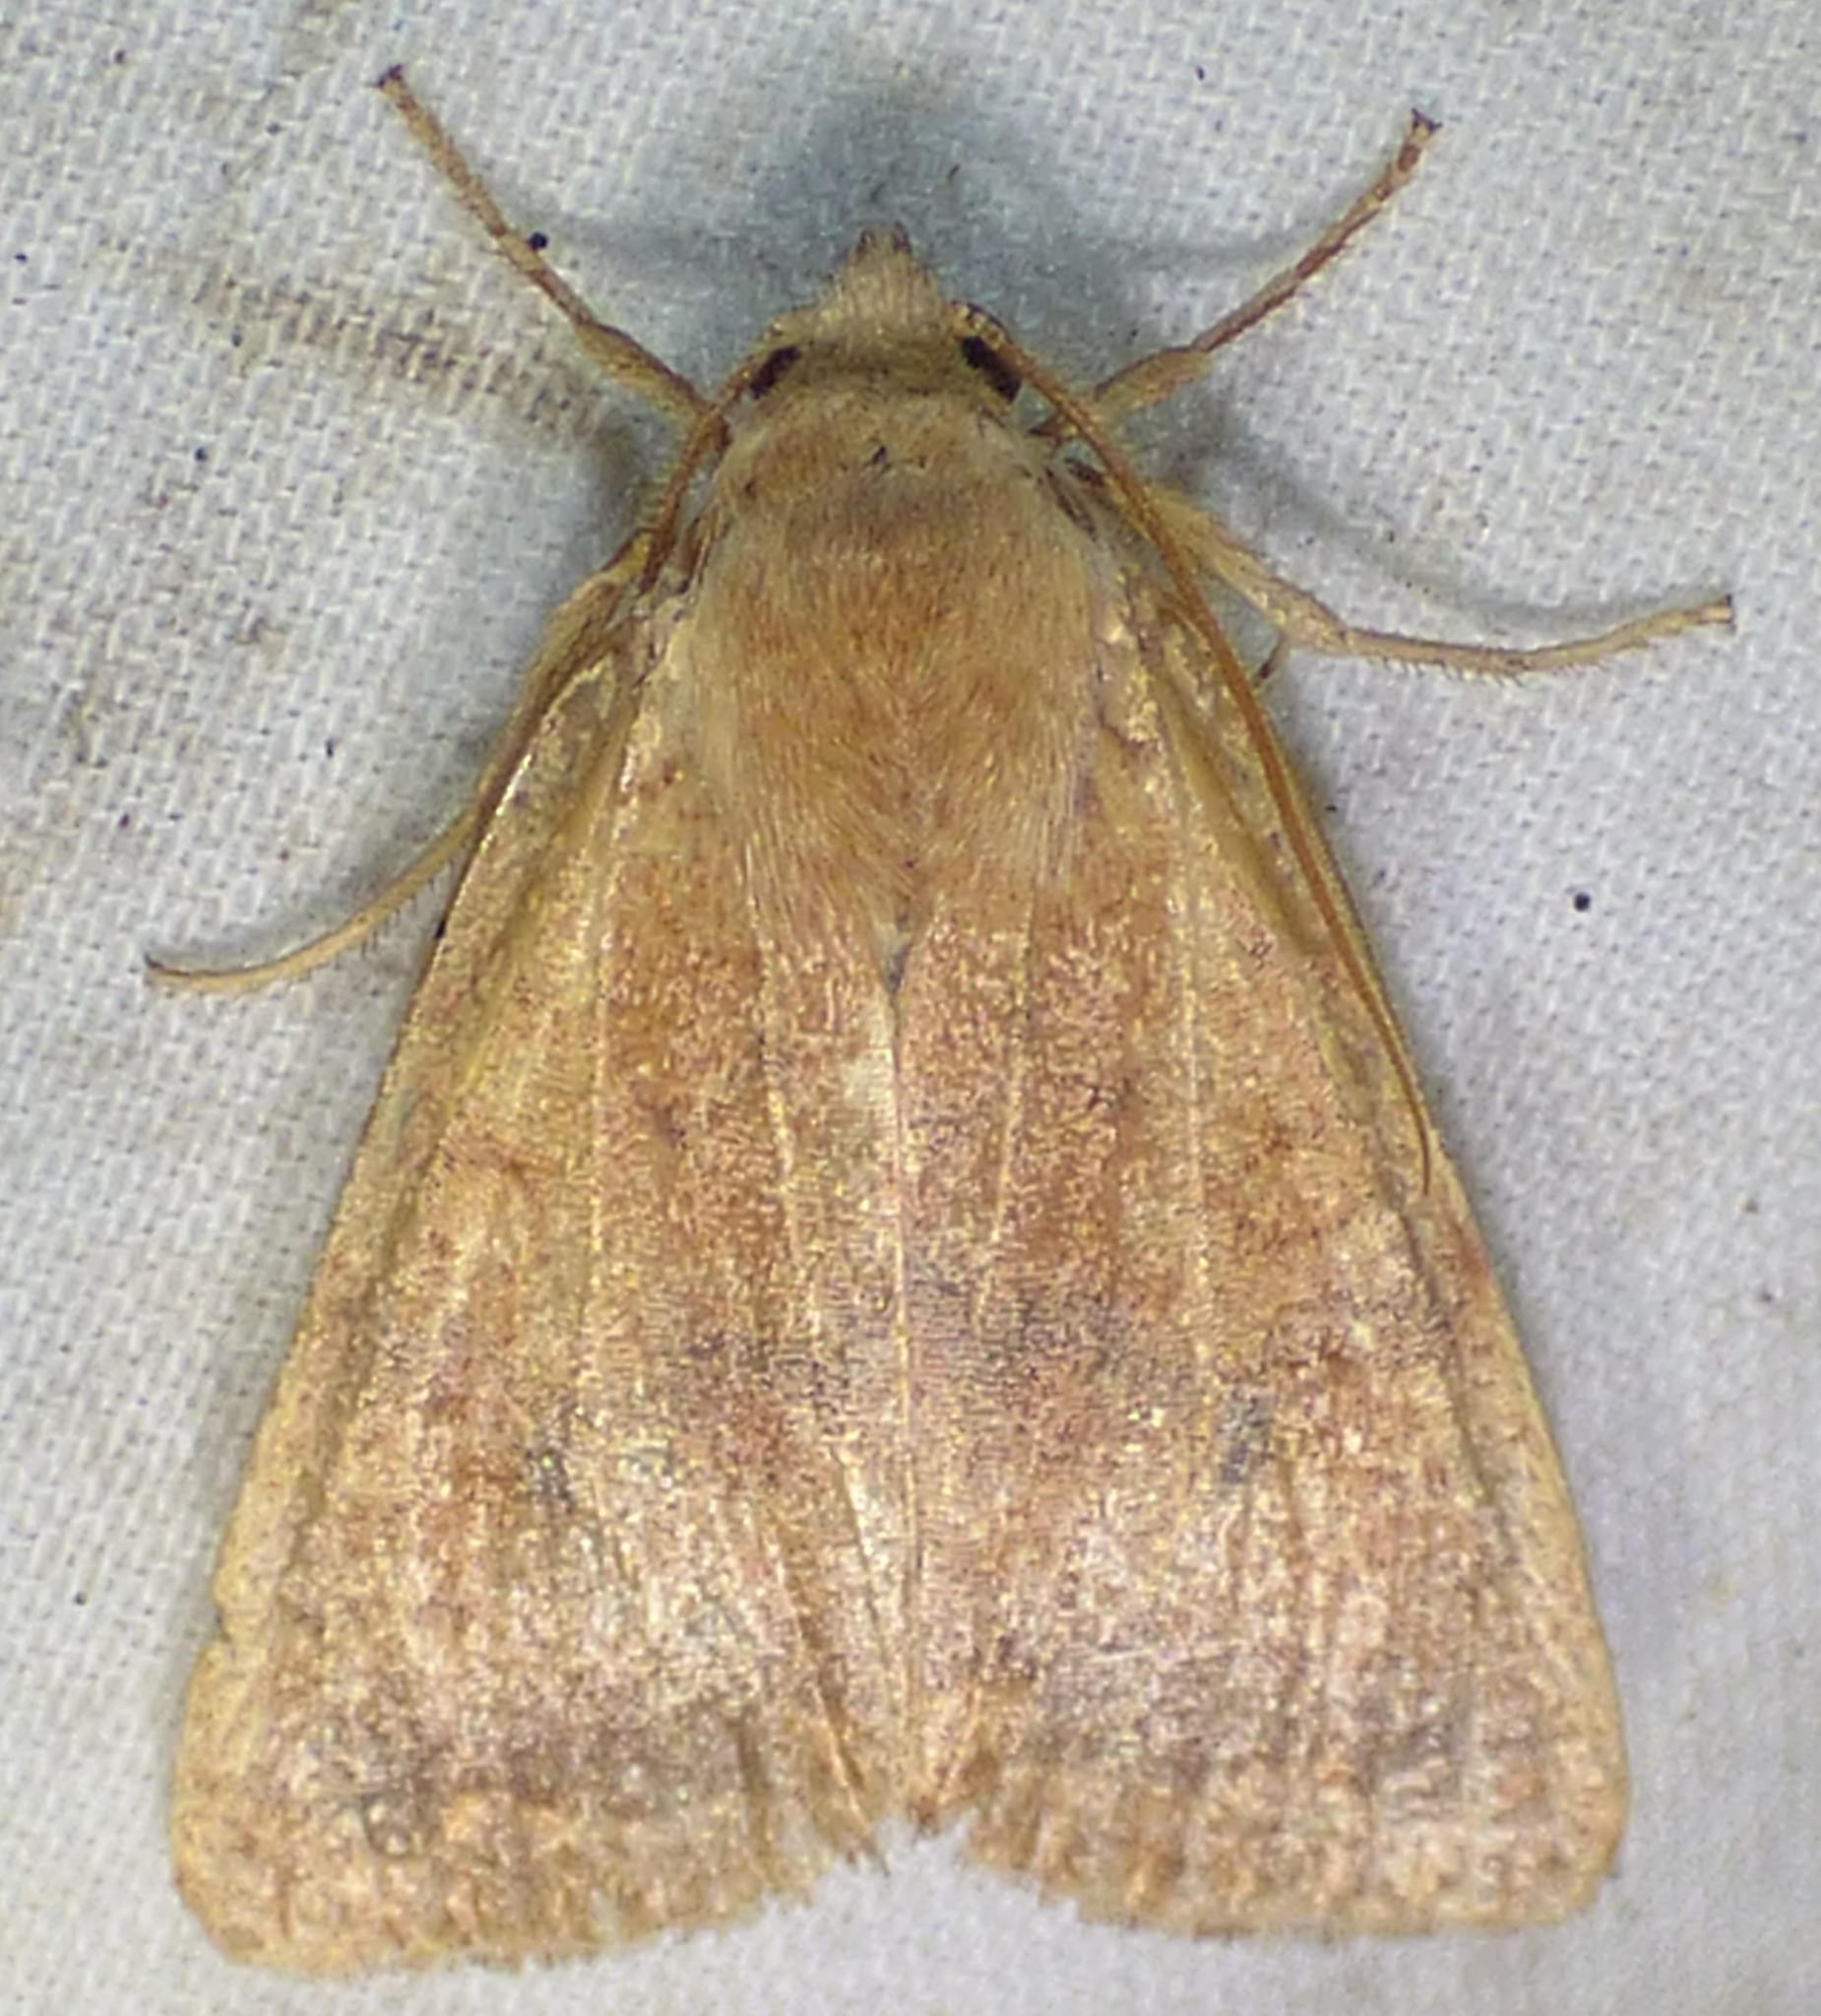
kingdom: Animalia
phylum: Arthropoda
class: Insecta
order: Lepidoptera
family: Noctuidae
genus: Agrochola
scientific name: Agrochola bicolorago
